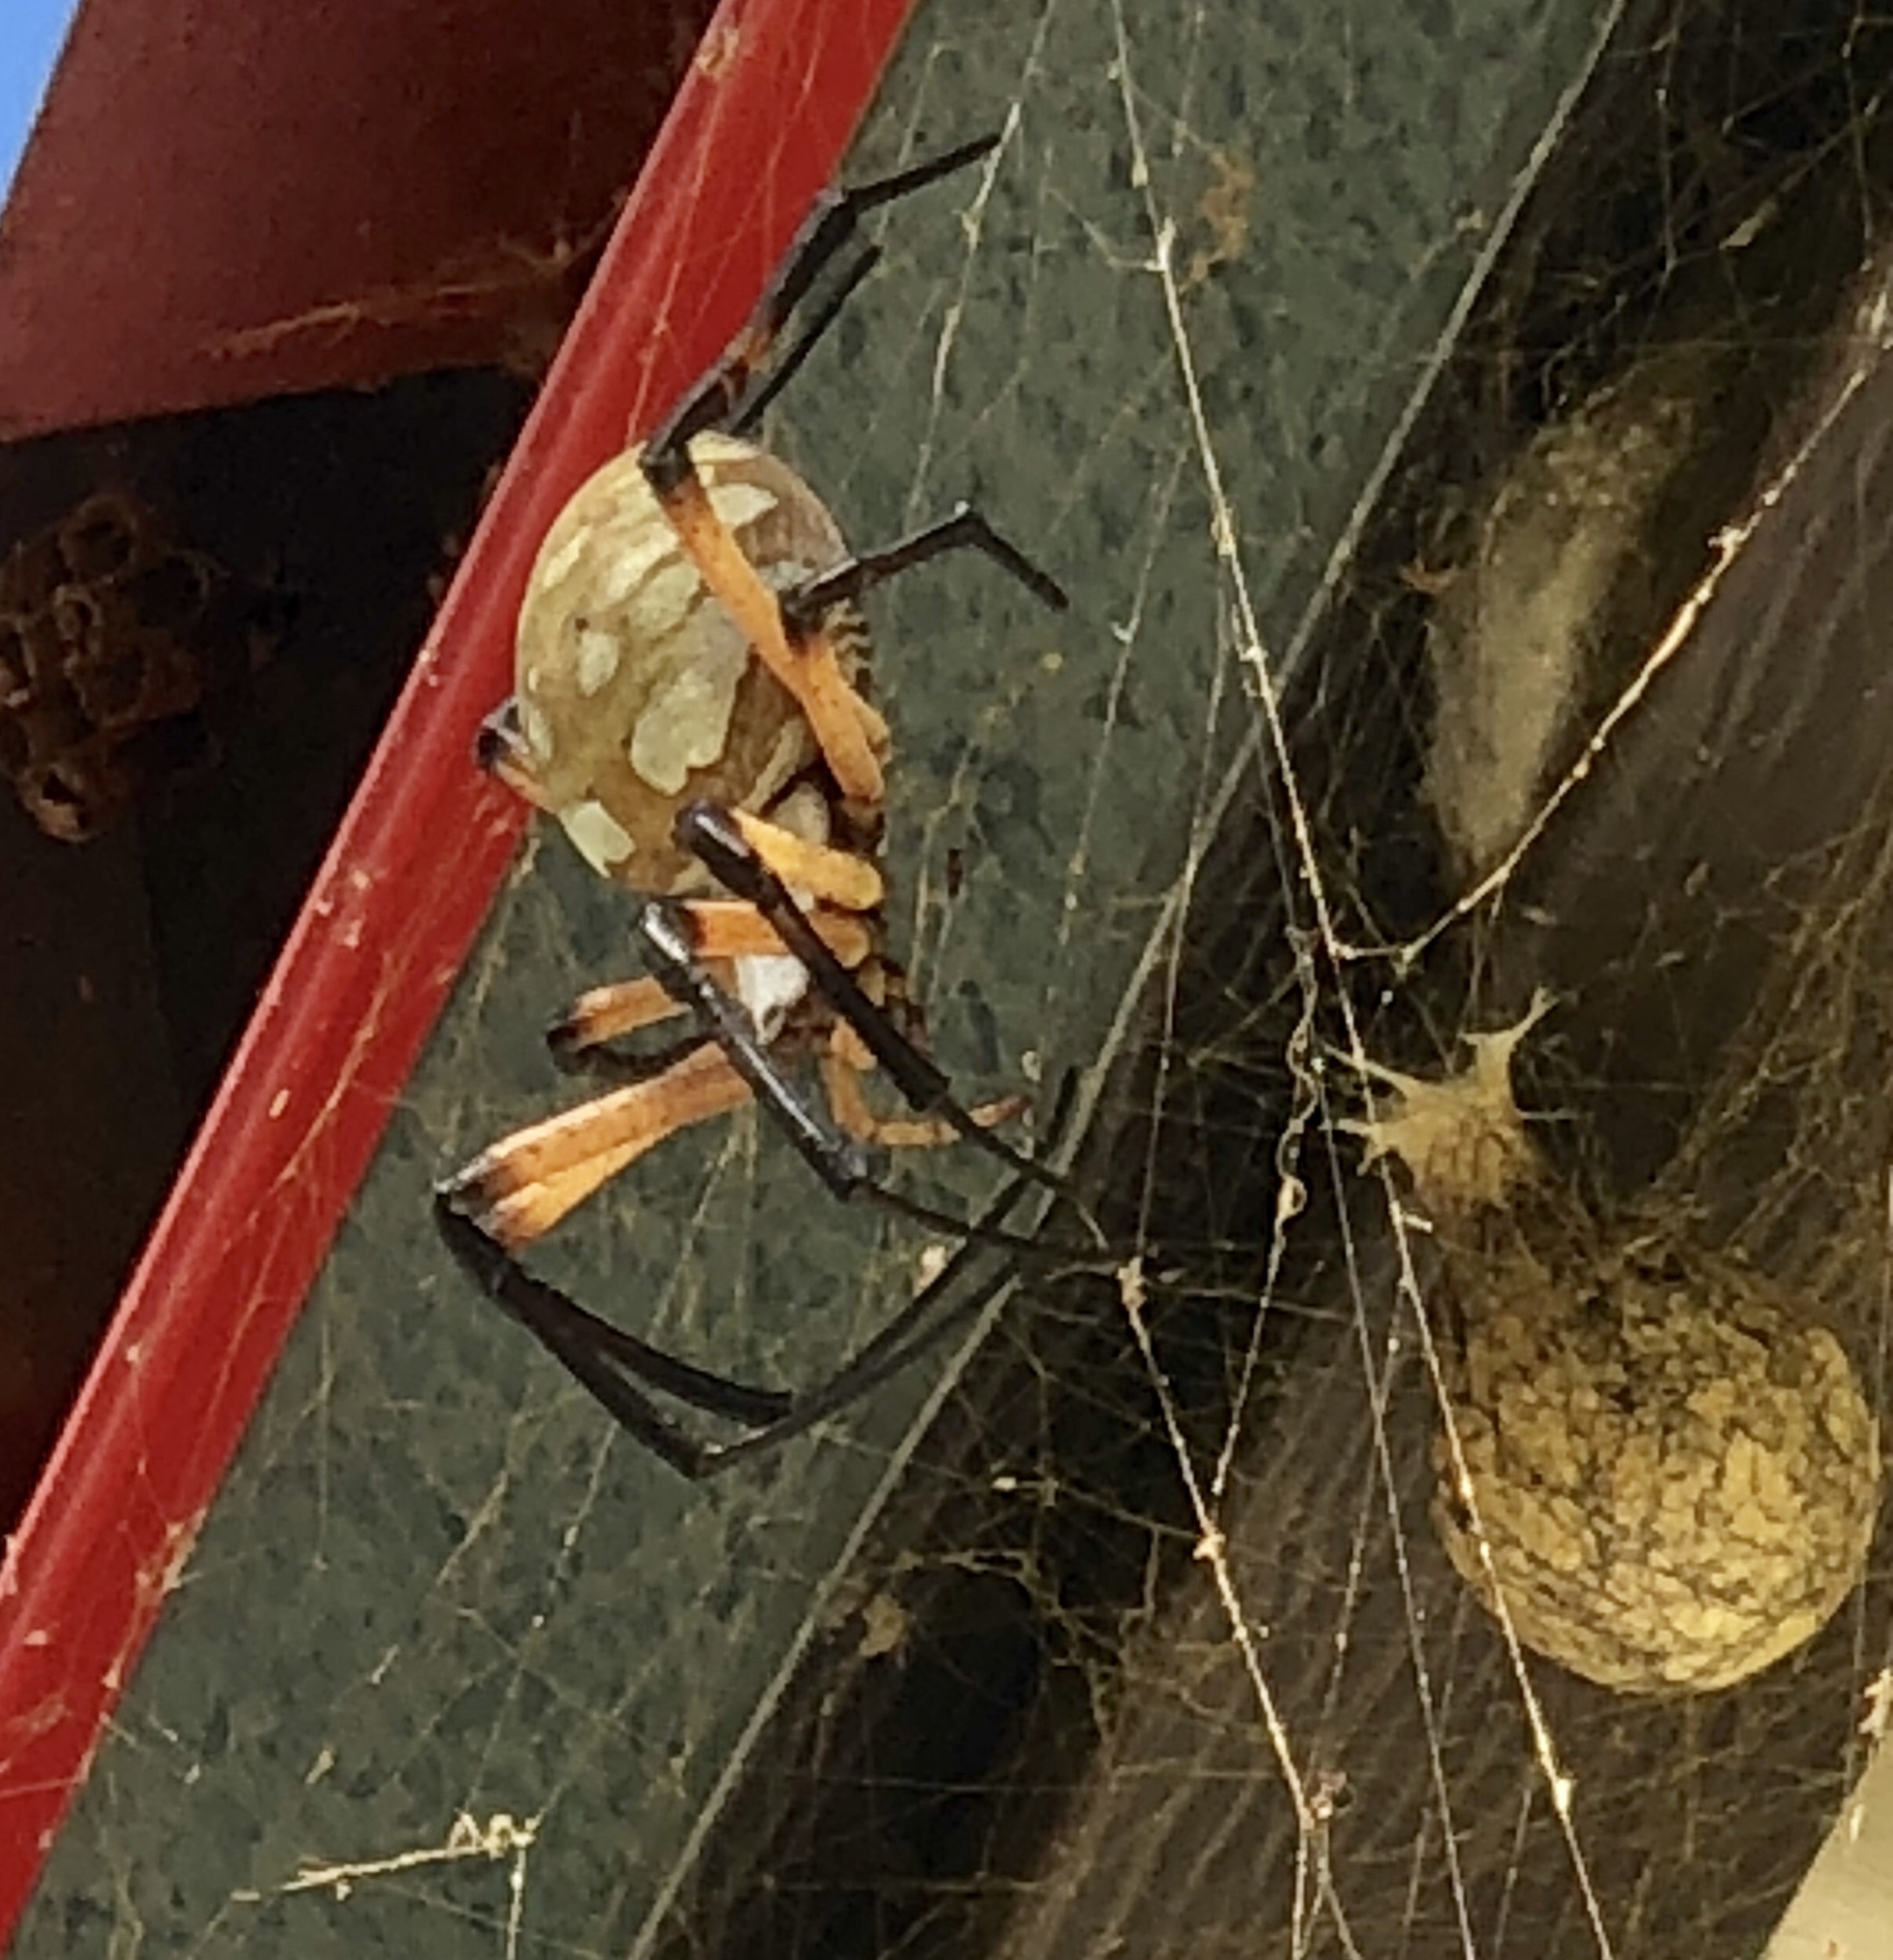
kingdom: Animalia
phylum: Arthropoda
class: Arachnida
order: Araneae
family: Araneidae
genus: Argiope
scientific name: Argiope aurantia
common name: Orb weavers
